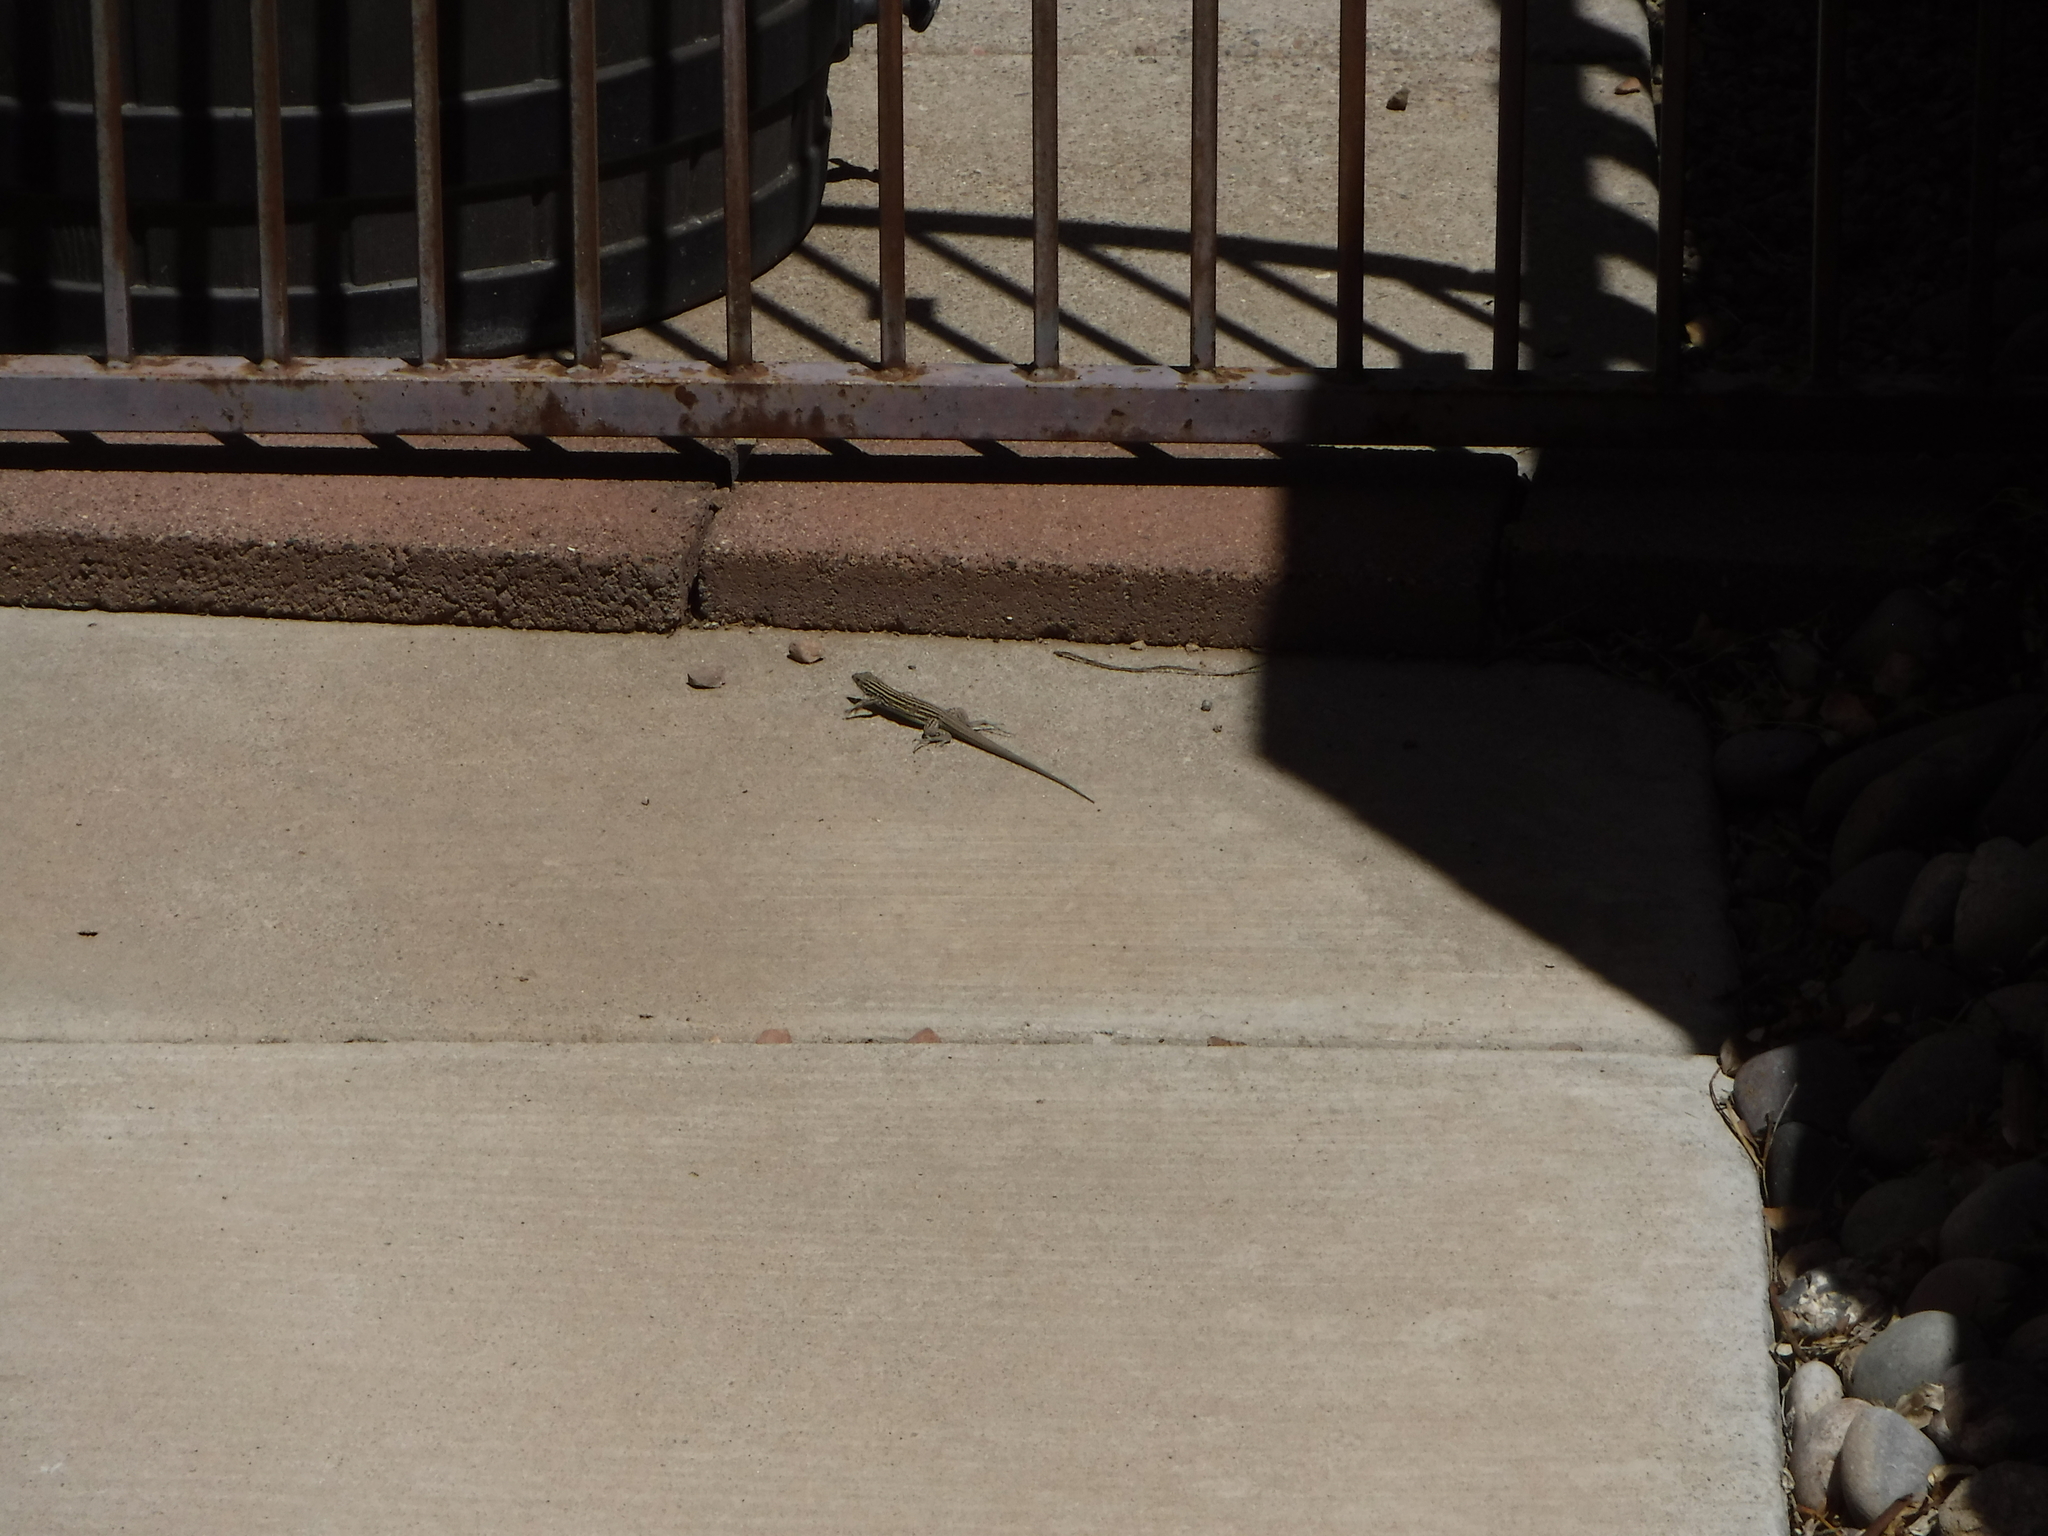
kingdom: Animalia
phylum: Chordata
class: Squamata
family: Teiidae
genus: Aspidoscelis
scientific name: Aspidoscelis neomexicanus
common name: New mexico whiptail
